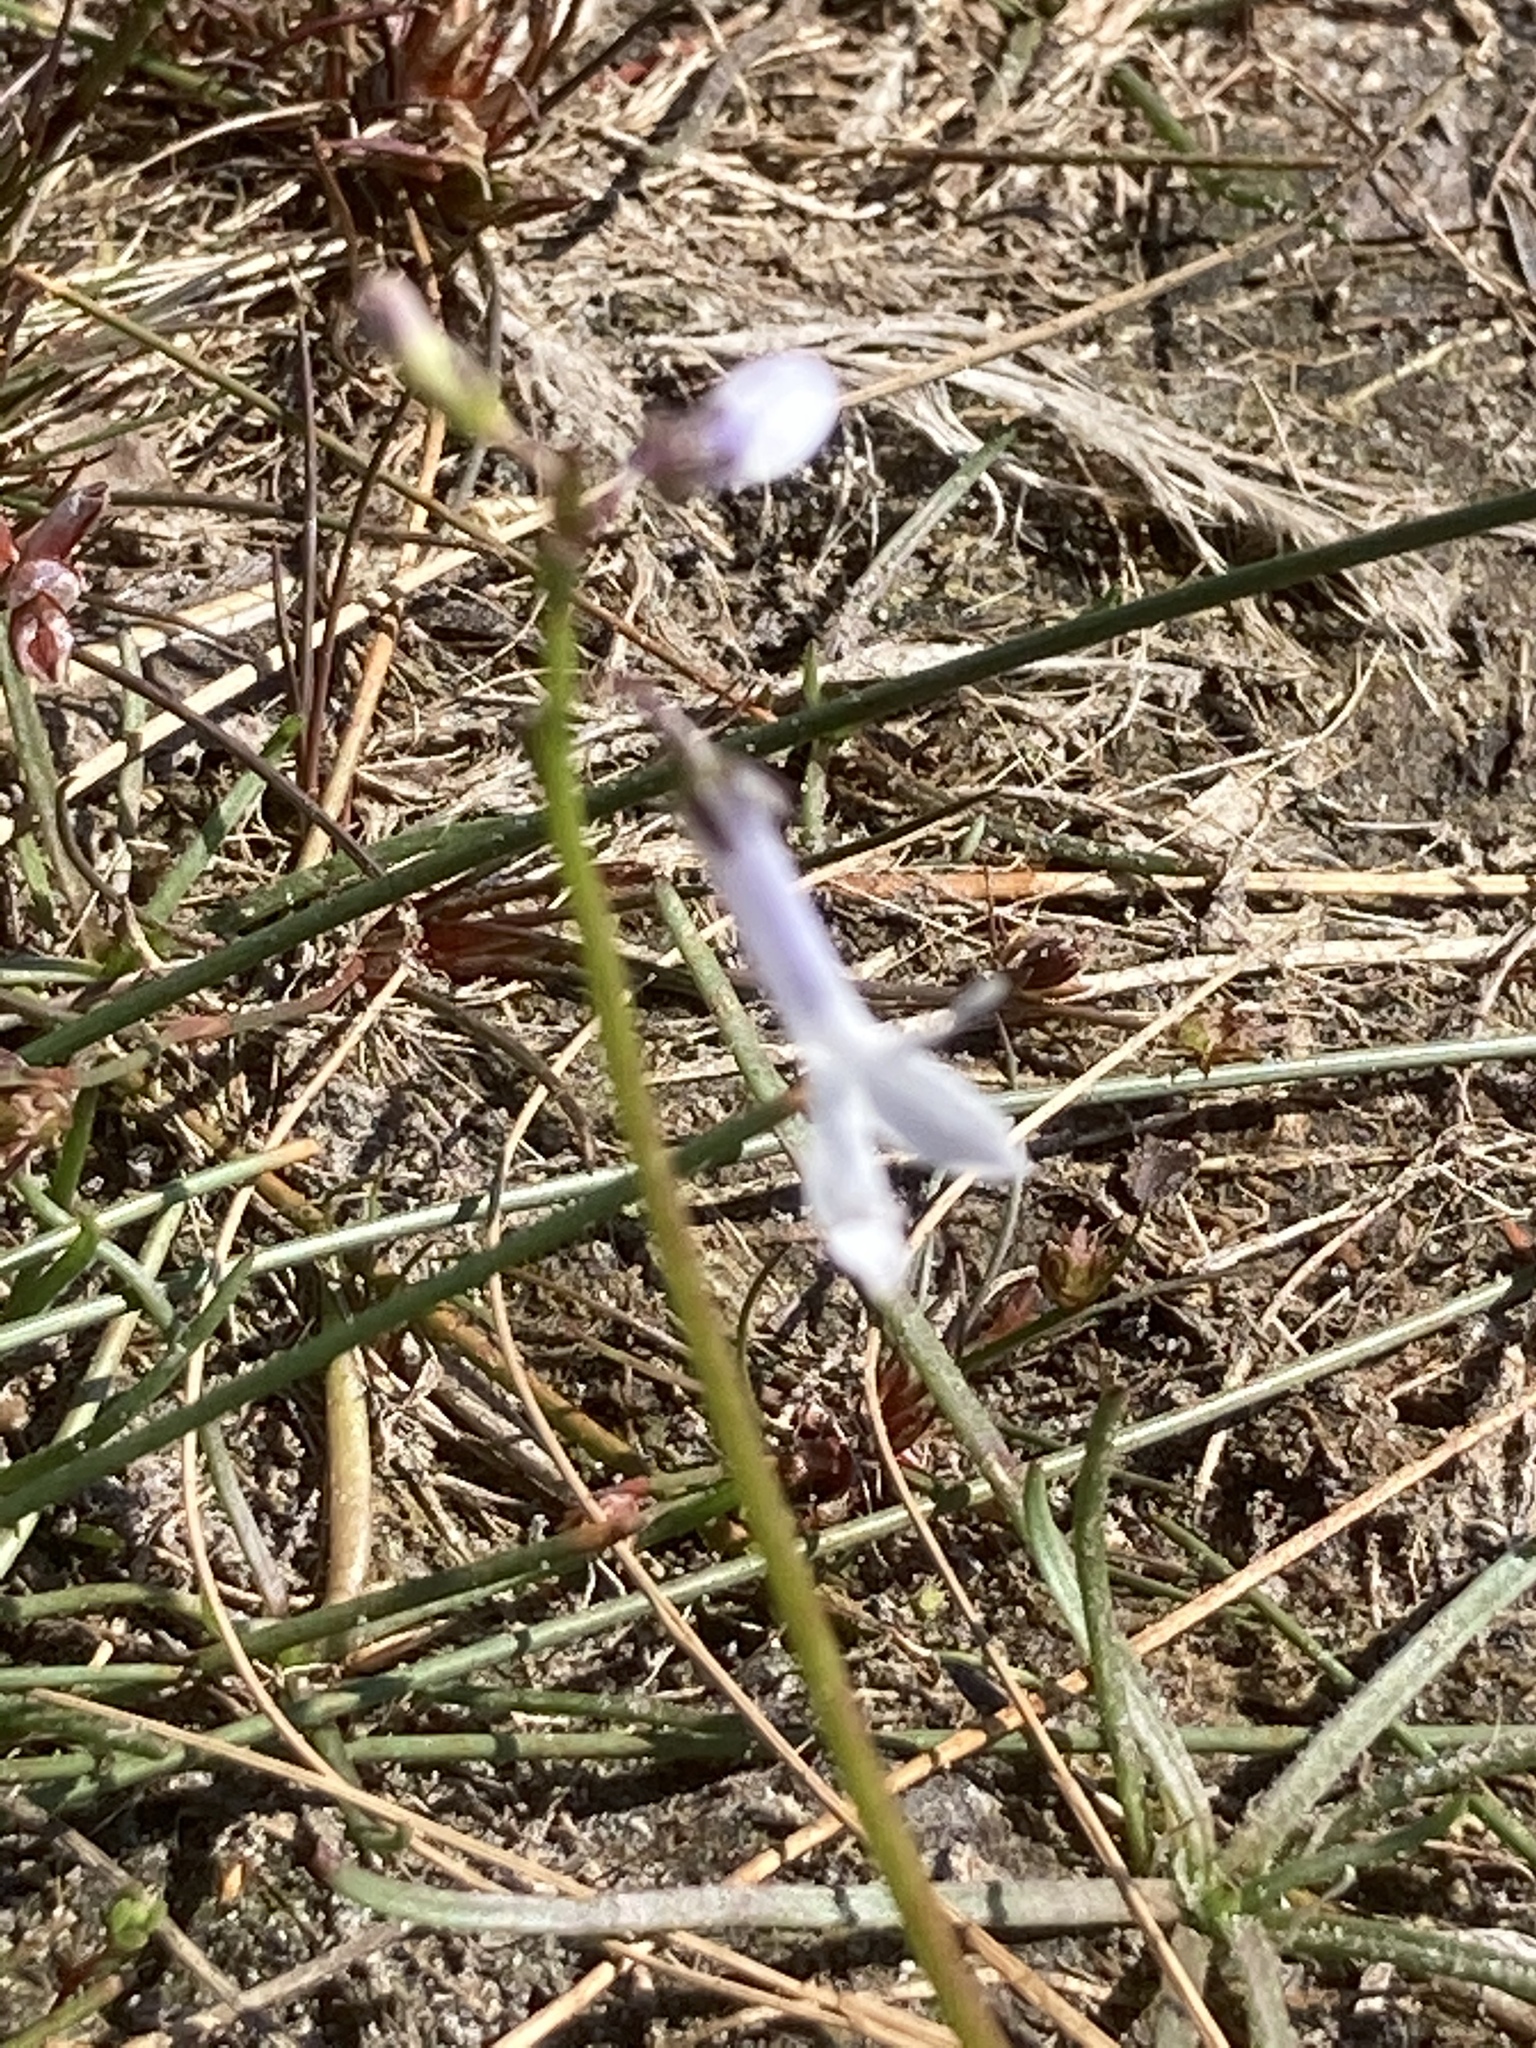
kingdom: Plantae
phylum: Tracheophyta
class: Magnoliopsida
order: Asterales
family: Campanulaceae
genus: Lobelia
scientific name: Lobelia dortmanna
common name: Water lobelia
